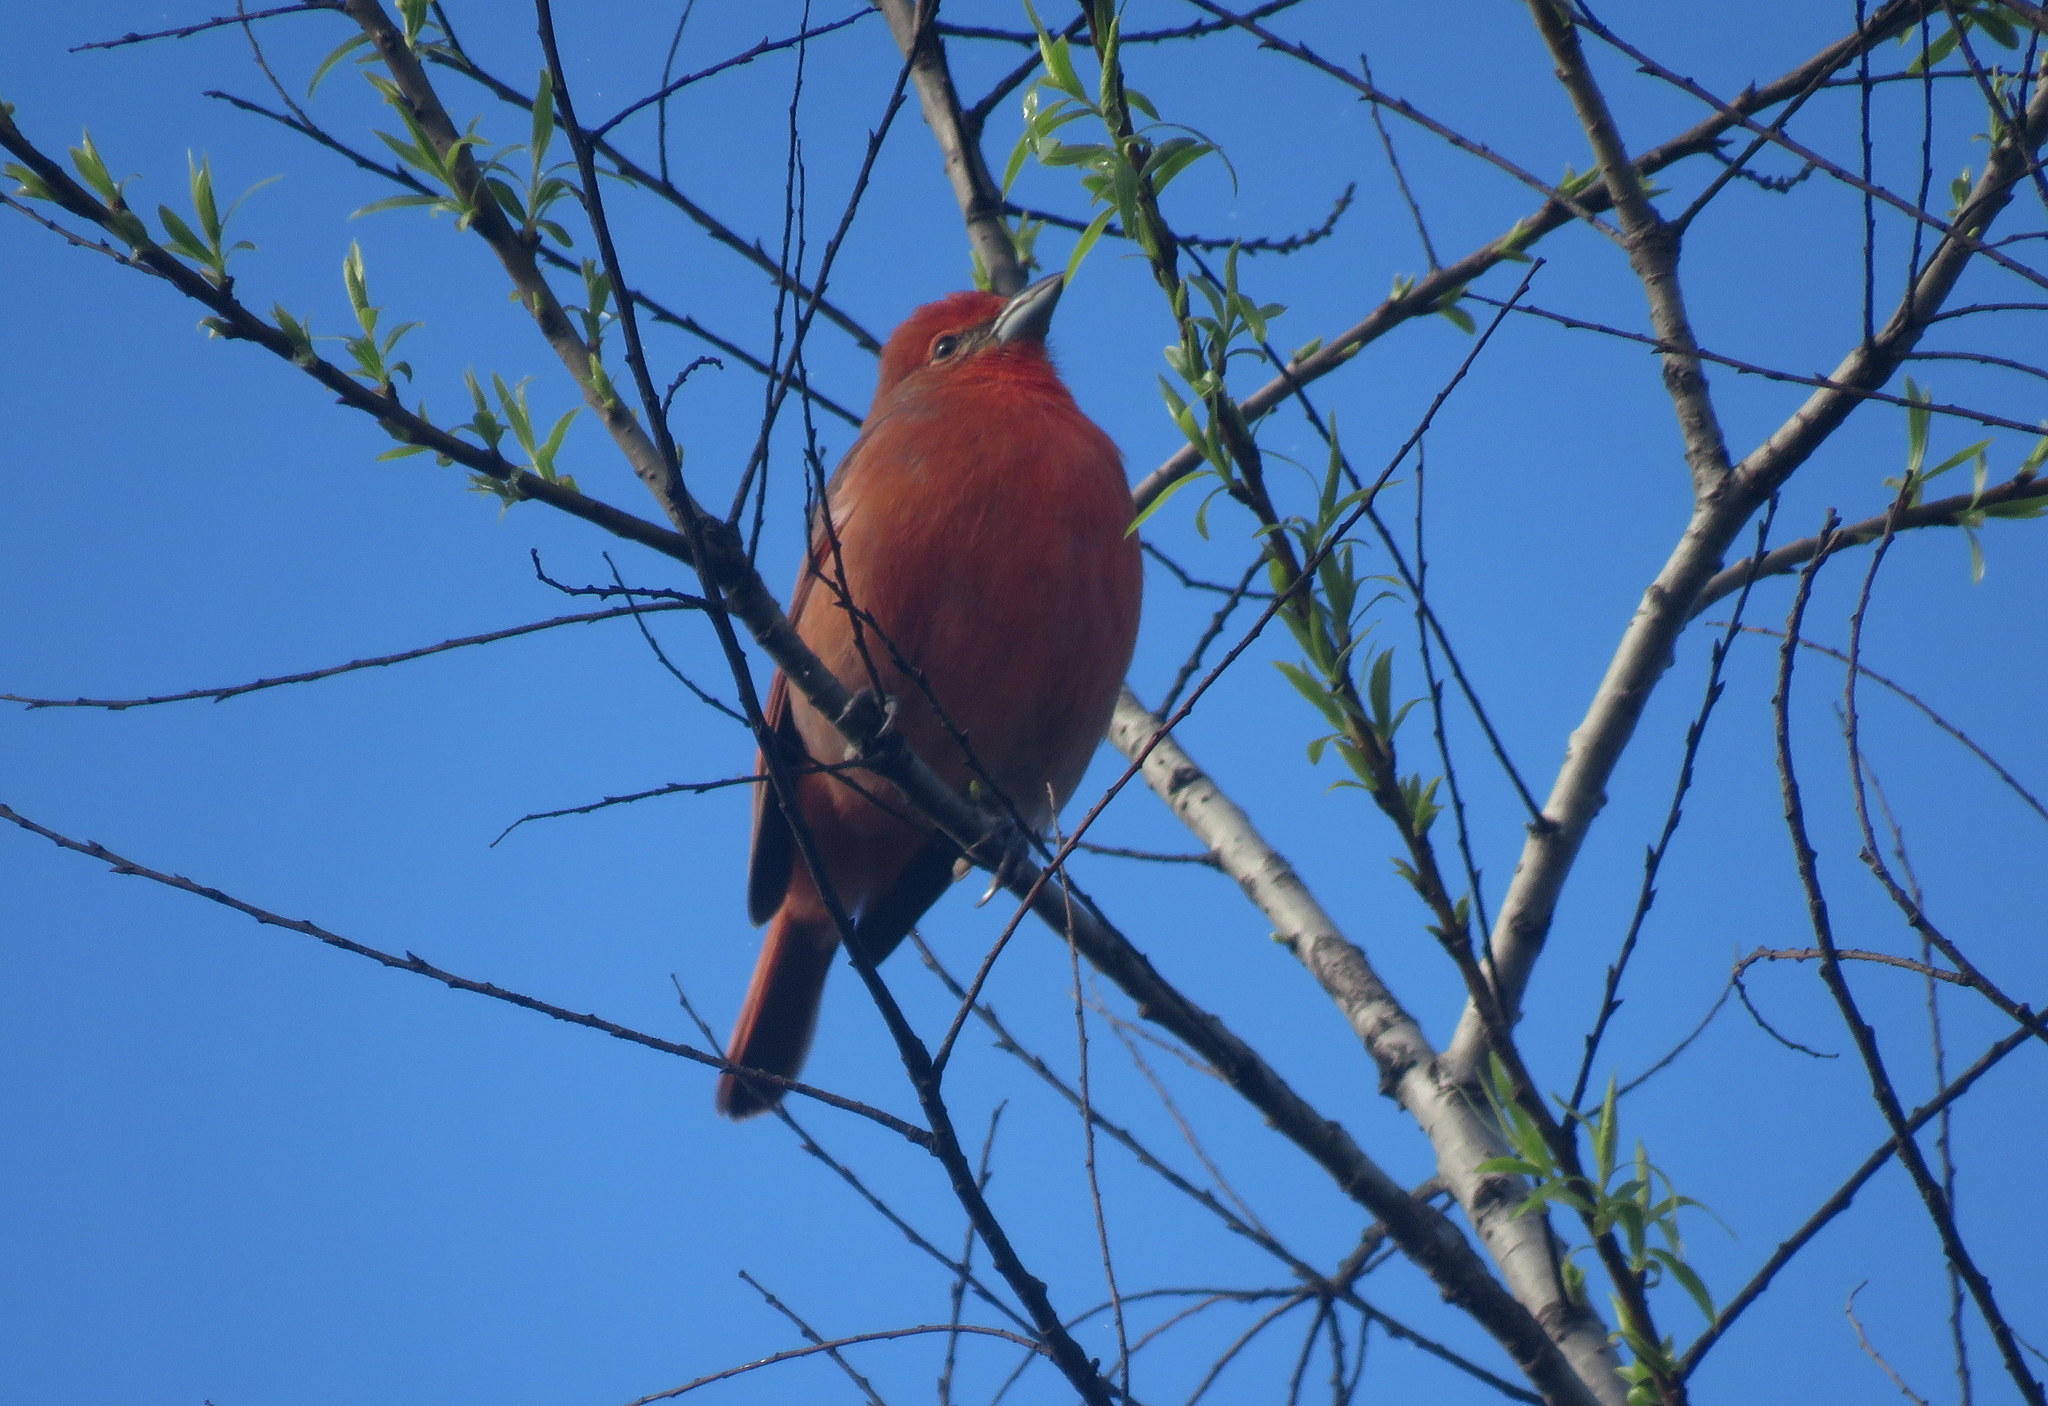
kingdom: Animalia
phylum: Chordata
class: Aves
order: Passeriformes
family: Cardinalidae
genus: Piranga
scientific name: Piranga flava
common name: Red tanager
